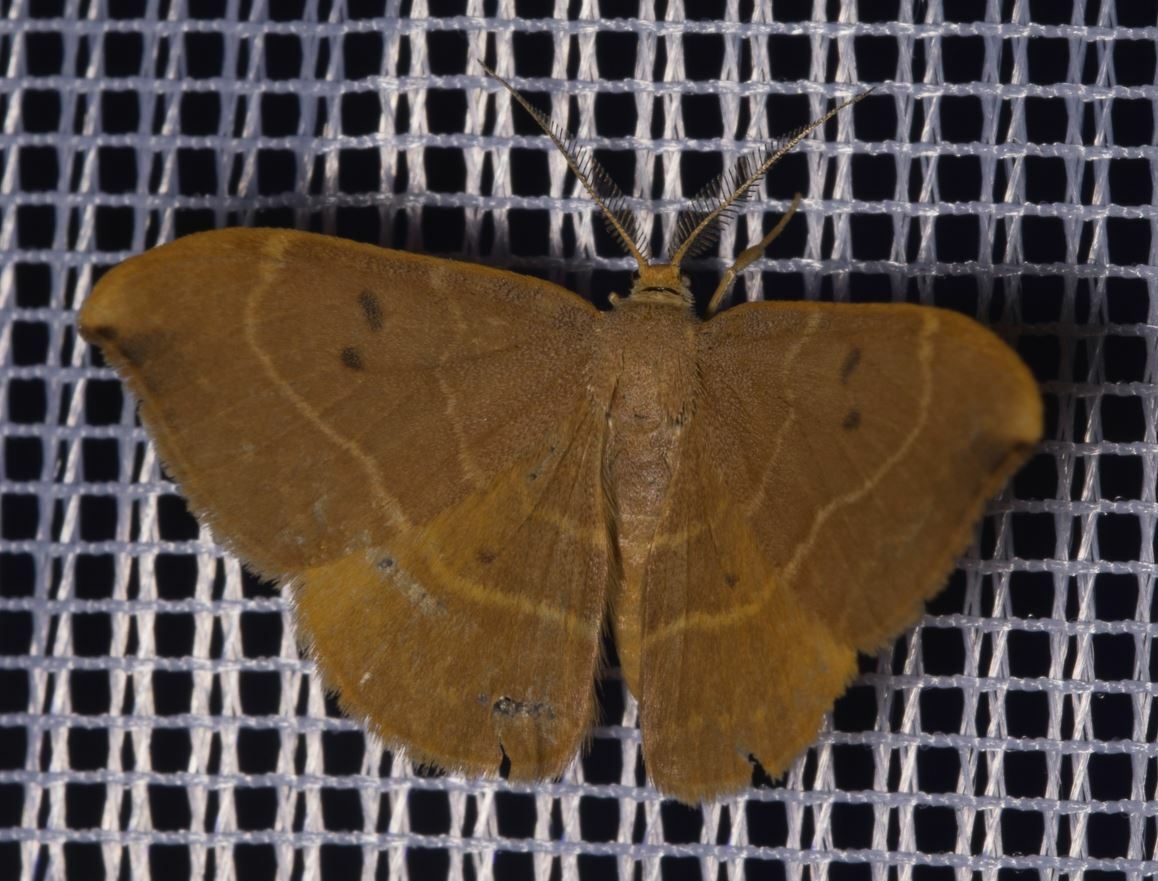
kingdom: Animalia
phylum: Arthropoda
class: Insecta
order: Lepidoptera
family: Drepanidae
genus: Watsonalla
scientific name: Watsonalla binaria
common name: Oak hook-tip
